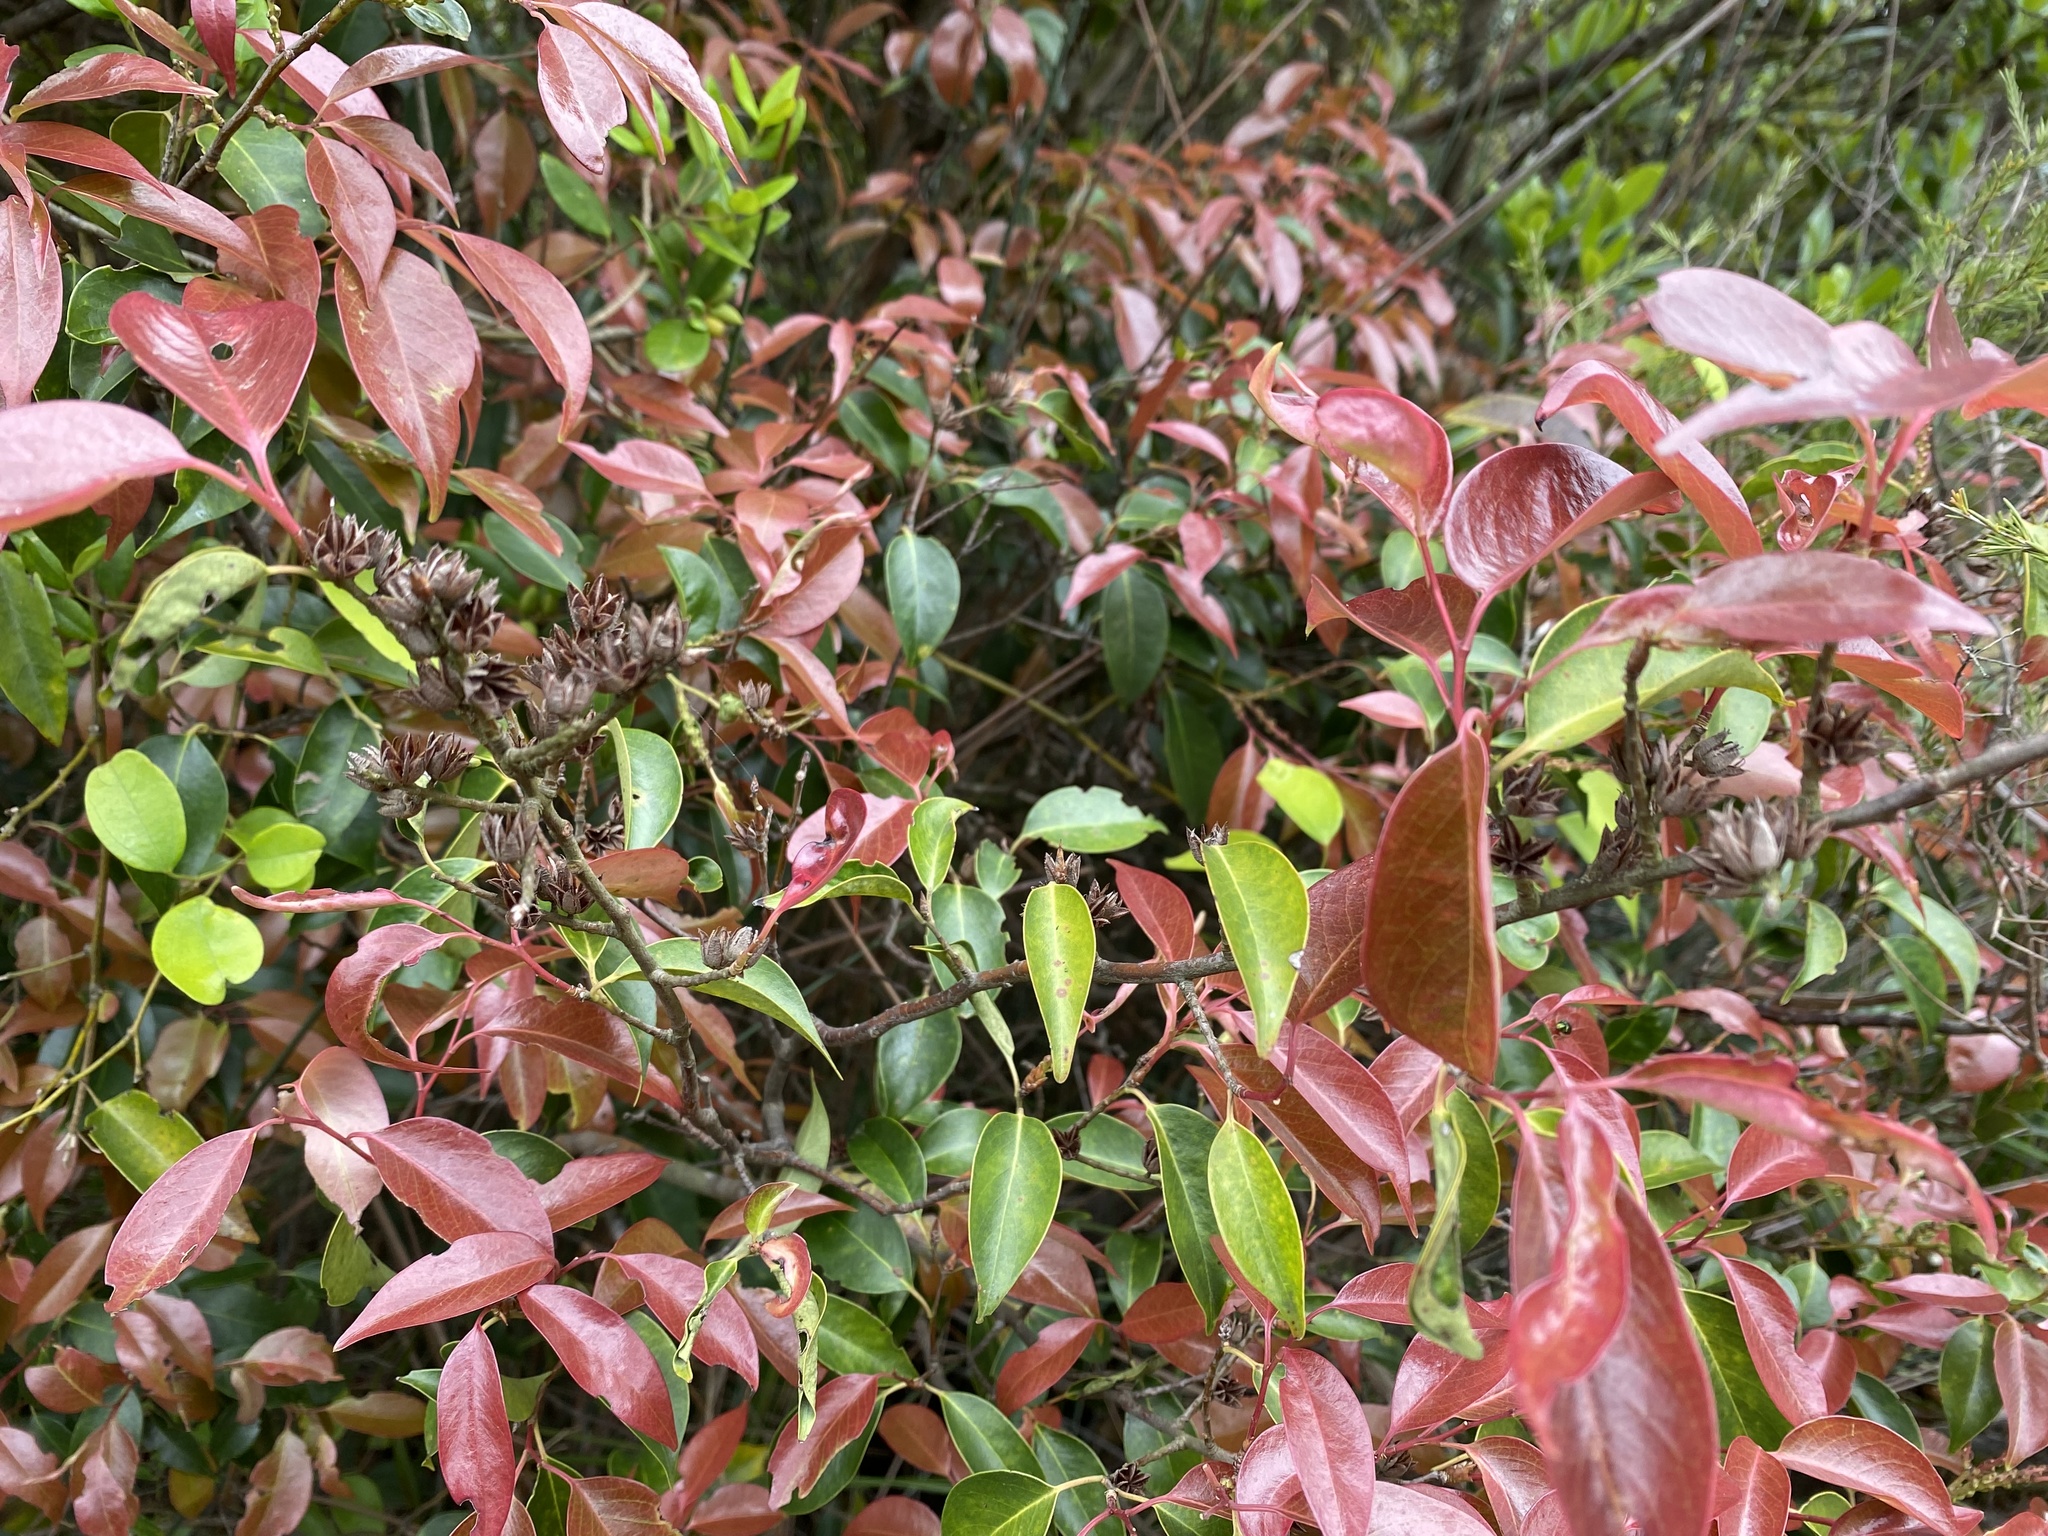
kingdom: Plantae
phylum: Tracheophyta
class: Magnoliopsida
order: Ericales
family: Pentaphylacaceae
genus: Pentaphylax
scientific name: Pentaphylax euryoides
